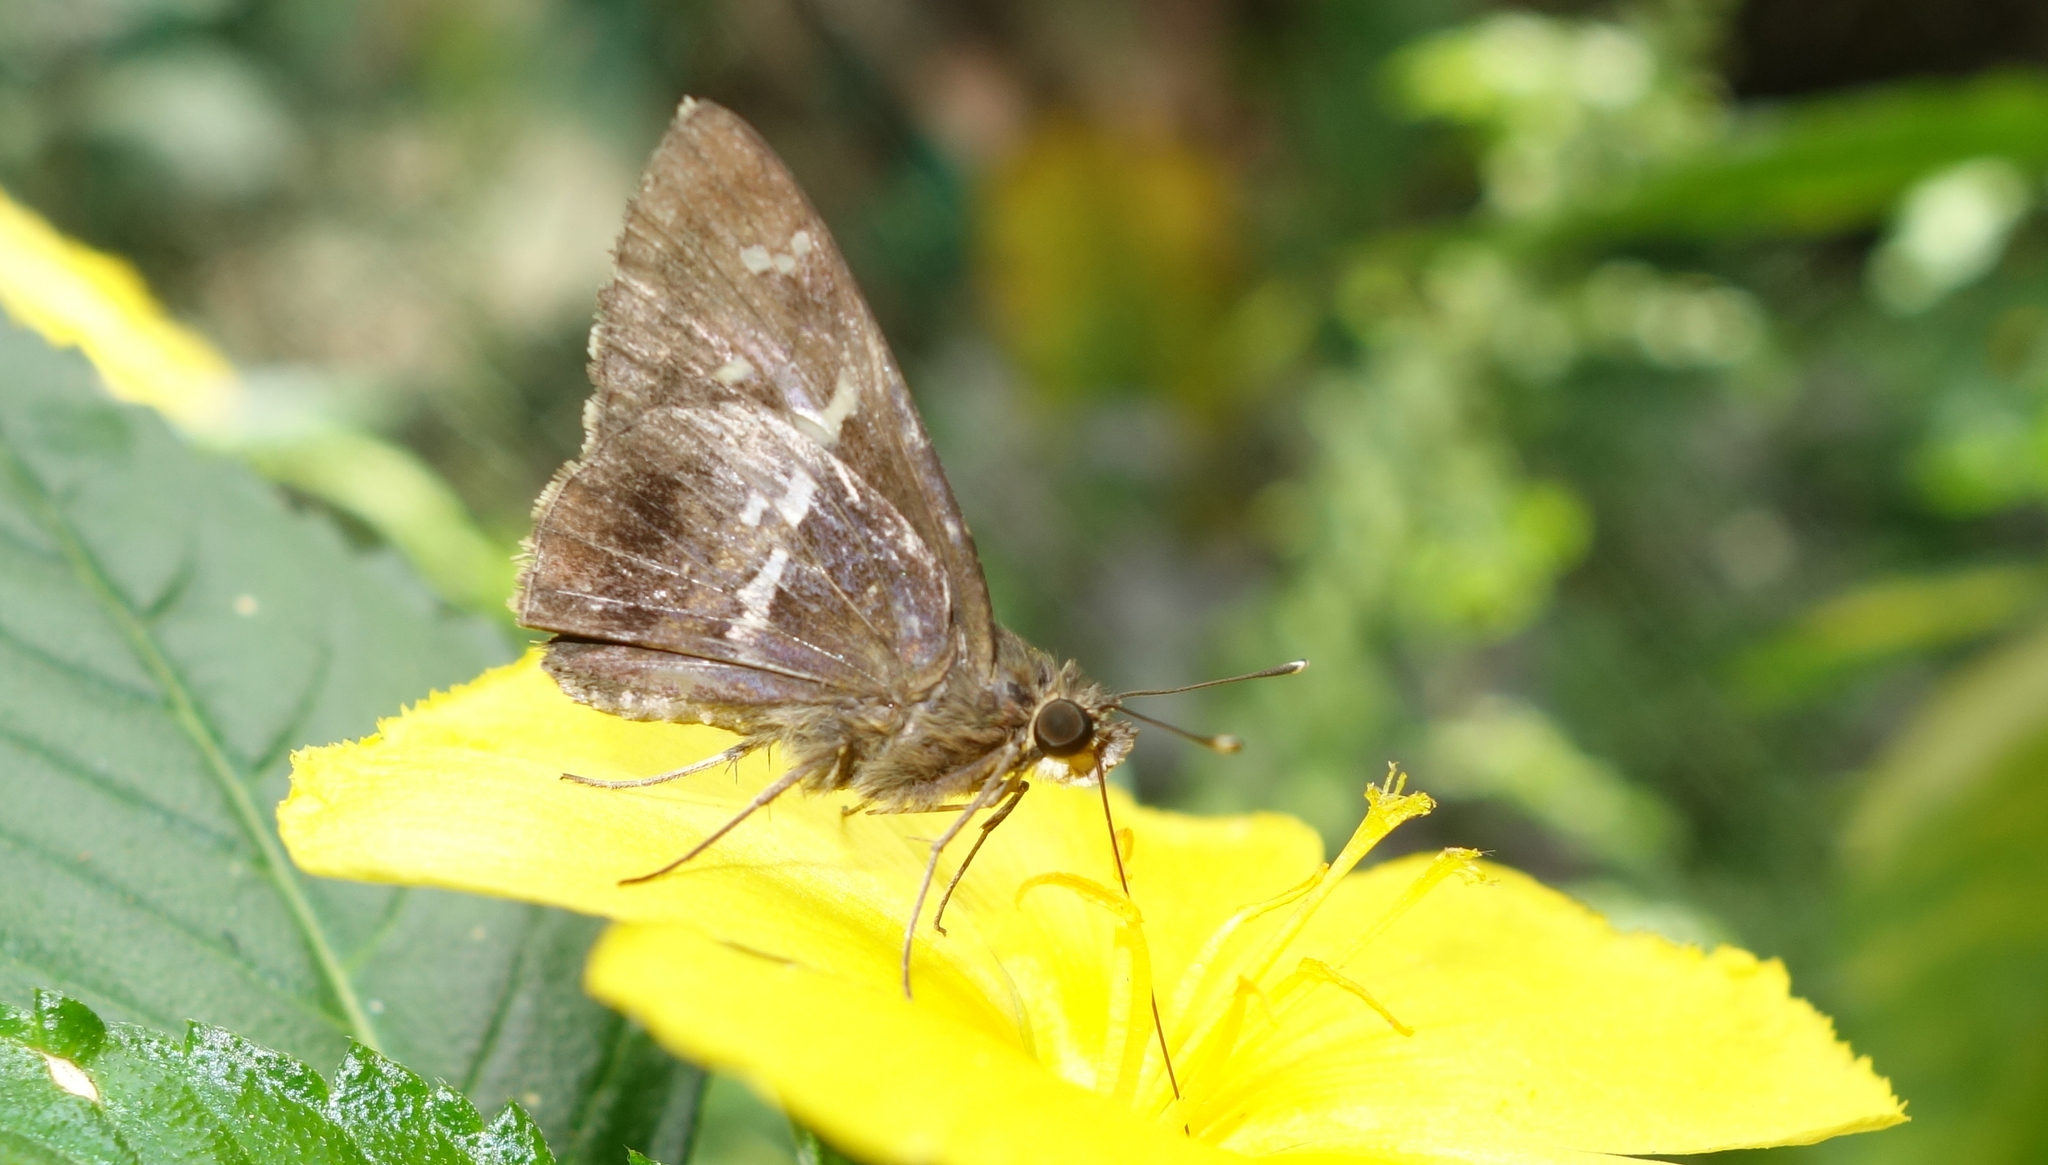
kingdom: Animalia
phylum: Arthropoda
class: Insecta
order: Lepidoptera
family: Hesperiidae
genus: Hyarotis
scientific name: Hyarotis adrastus
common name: Tree flitter
